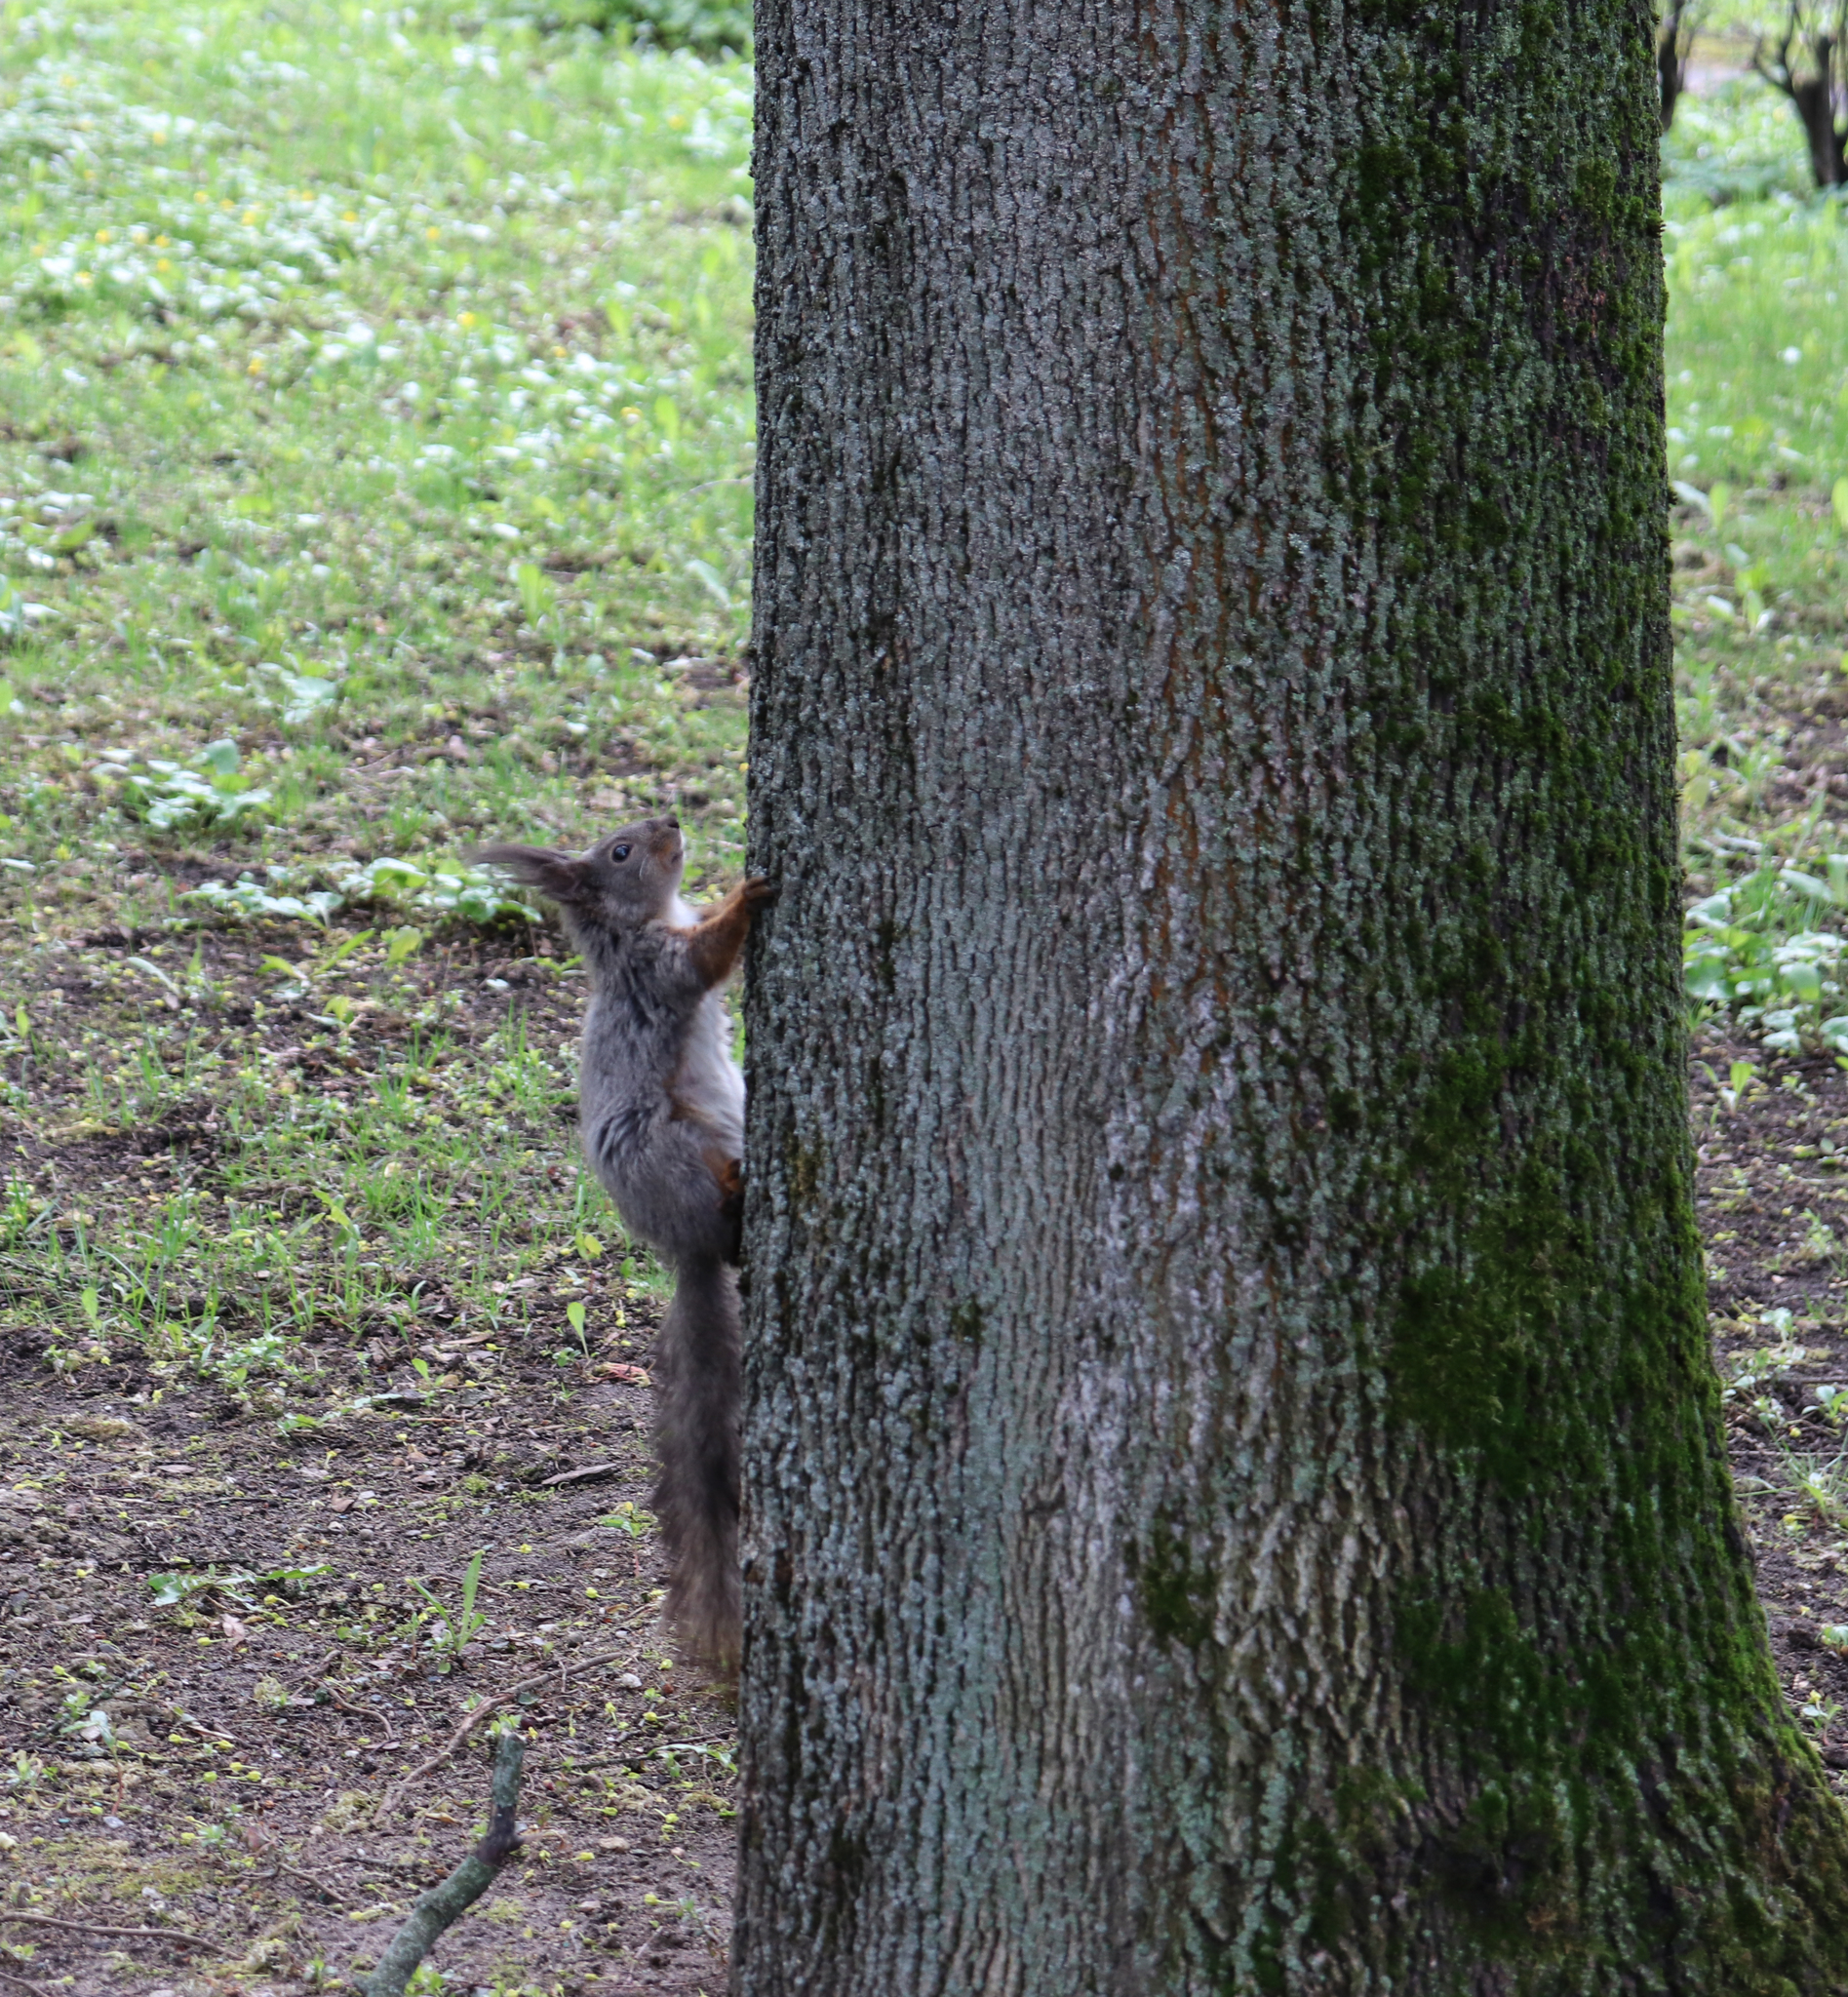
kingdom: Animalia
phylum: Chordata
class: Mammalia
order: Rodentia
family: Sciuridae
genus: Sciurus
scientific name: Sciurus vulgaris
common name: Eurasian red squirrel
